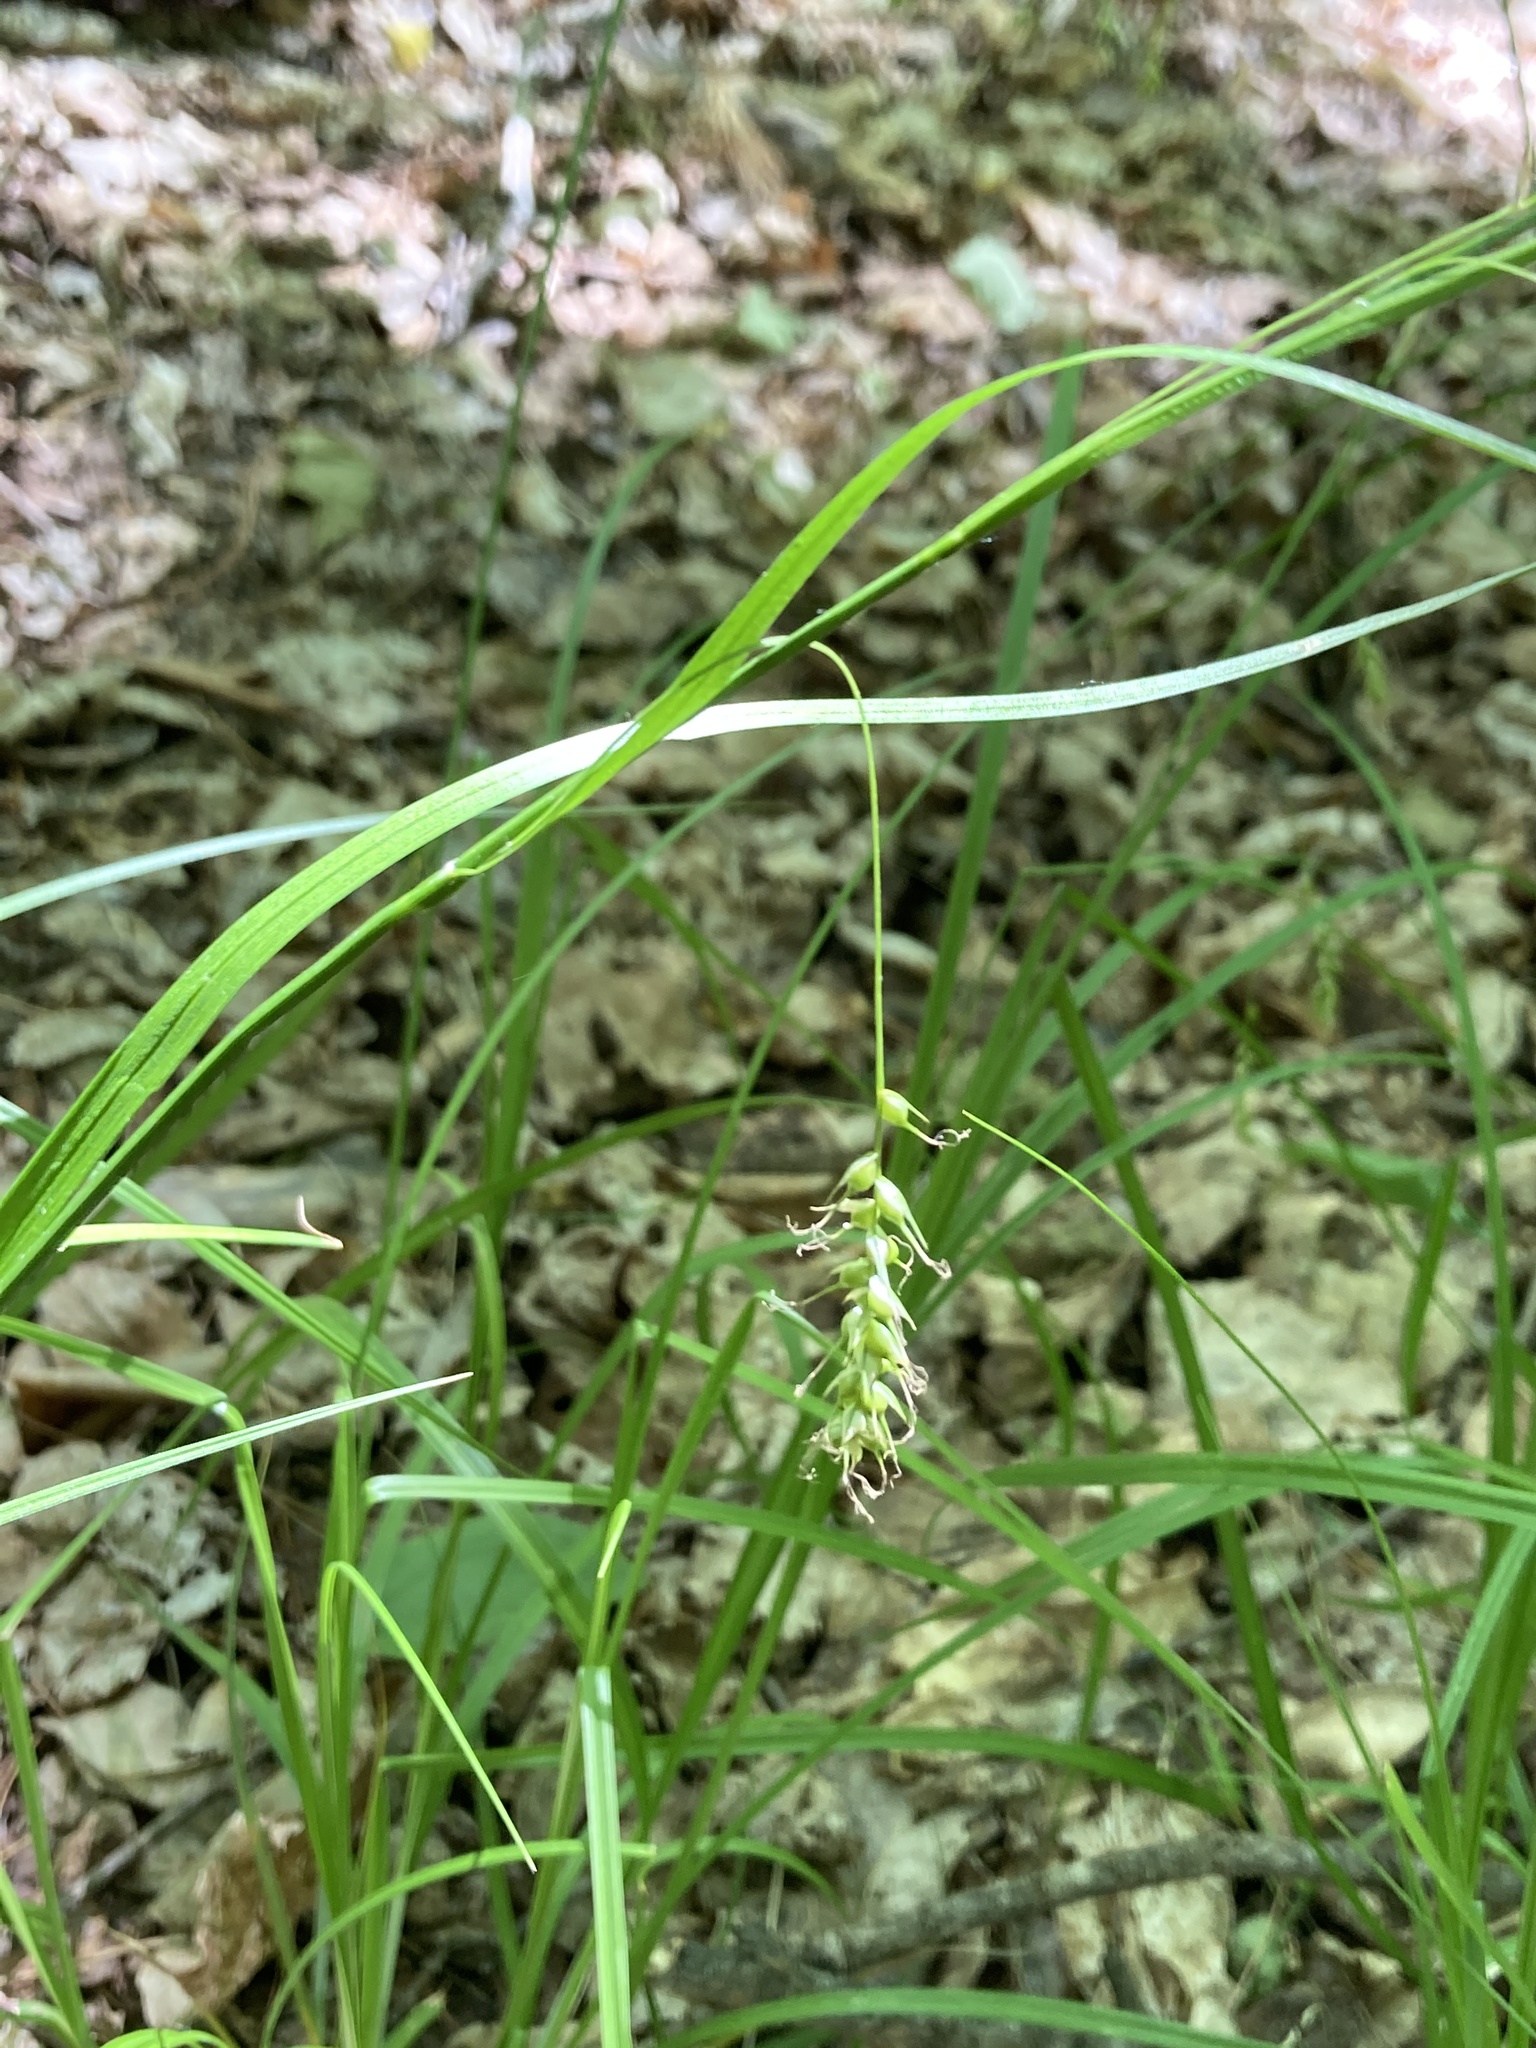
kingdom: Plantae
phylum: Tracheophyta
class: Liliopsida
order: Poales
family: Cyperaceae
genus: Carex
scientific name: Carex sprengelii
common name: Long-beaked sedge
